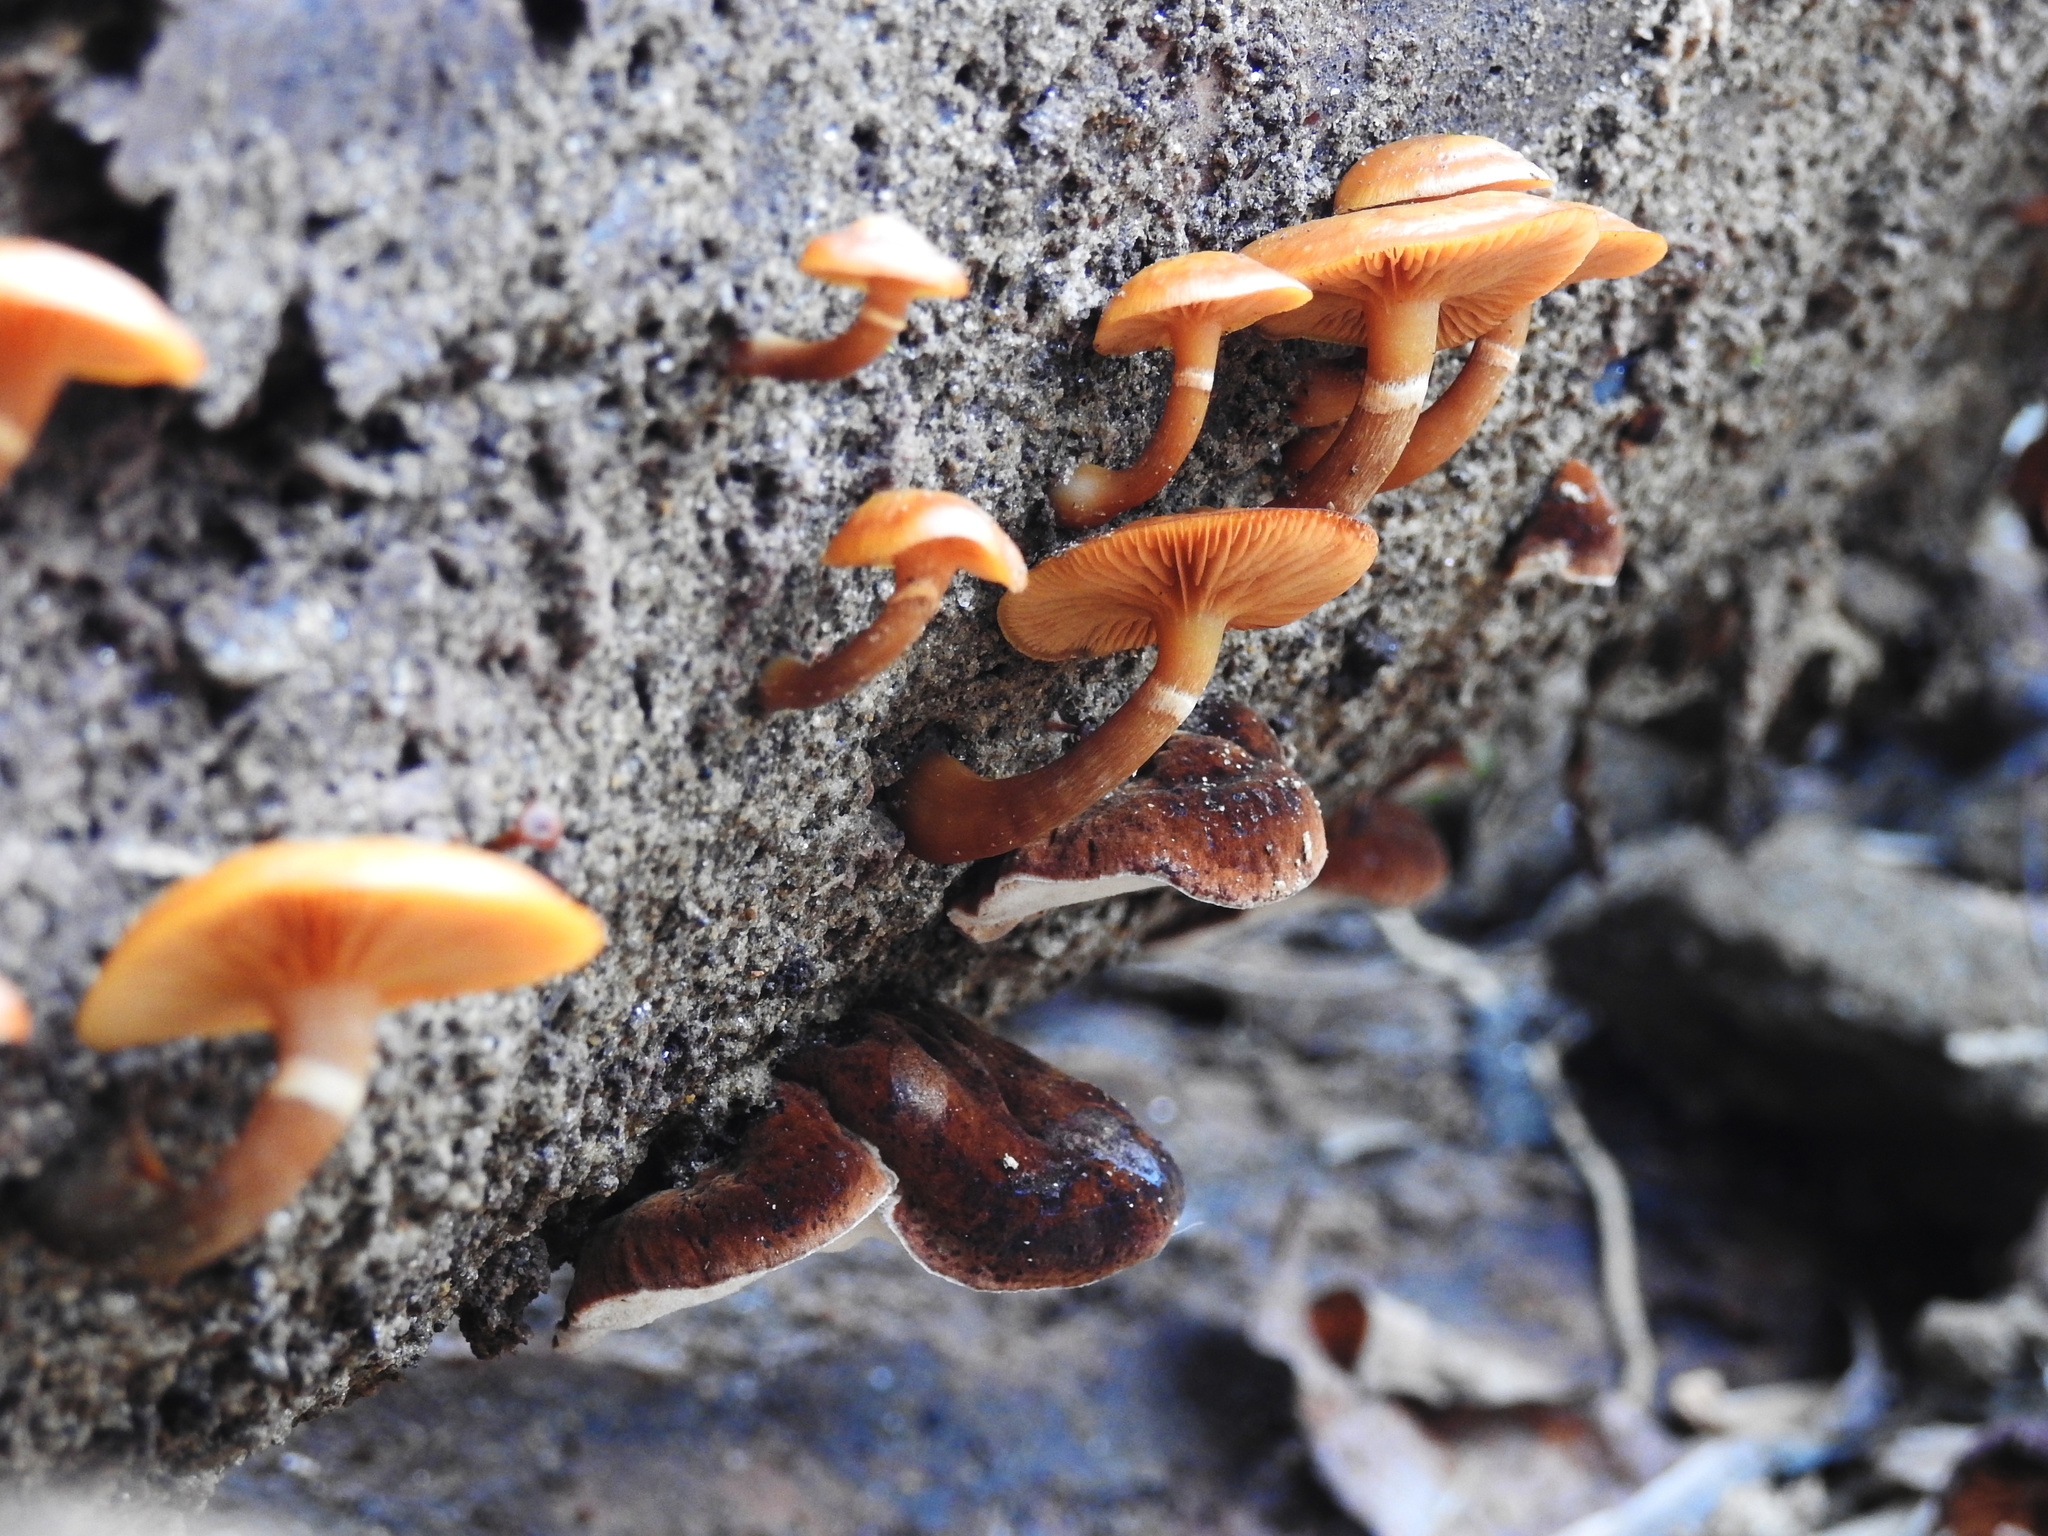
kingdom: Fungi
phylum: Basidiomycota
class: Agaricomycetes
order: Agaricales
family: Hymenogastraceae
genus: Galerina
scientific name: Galerina marginata
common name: Funeral bell
